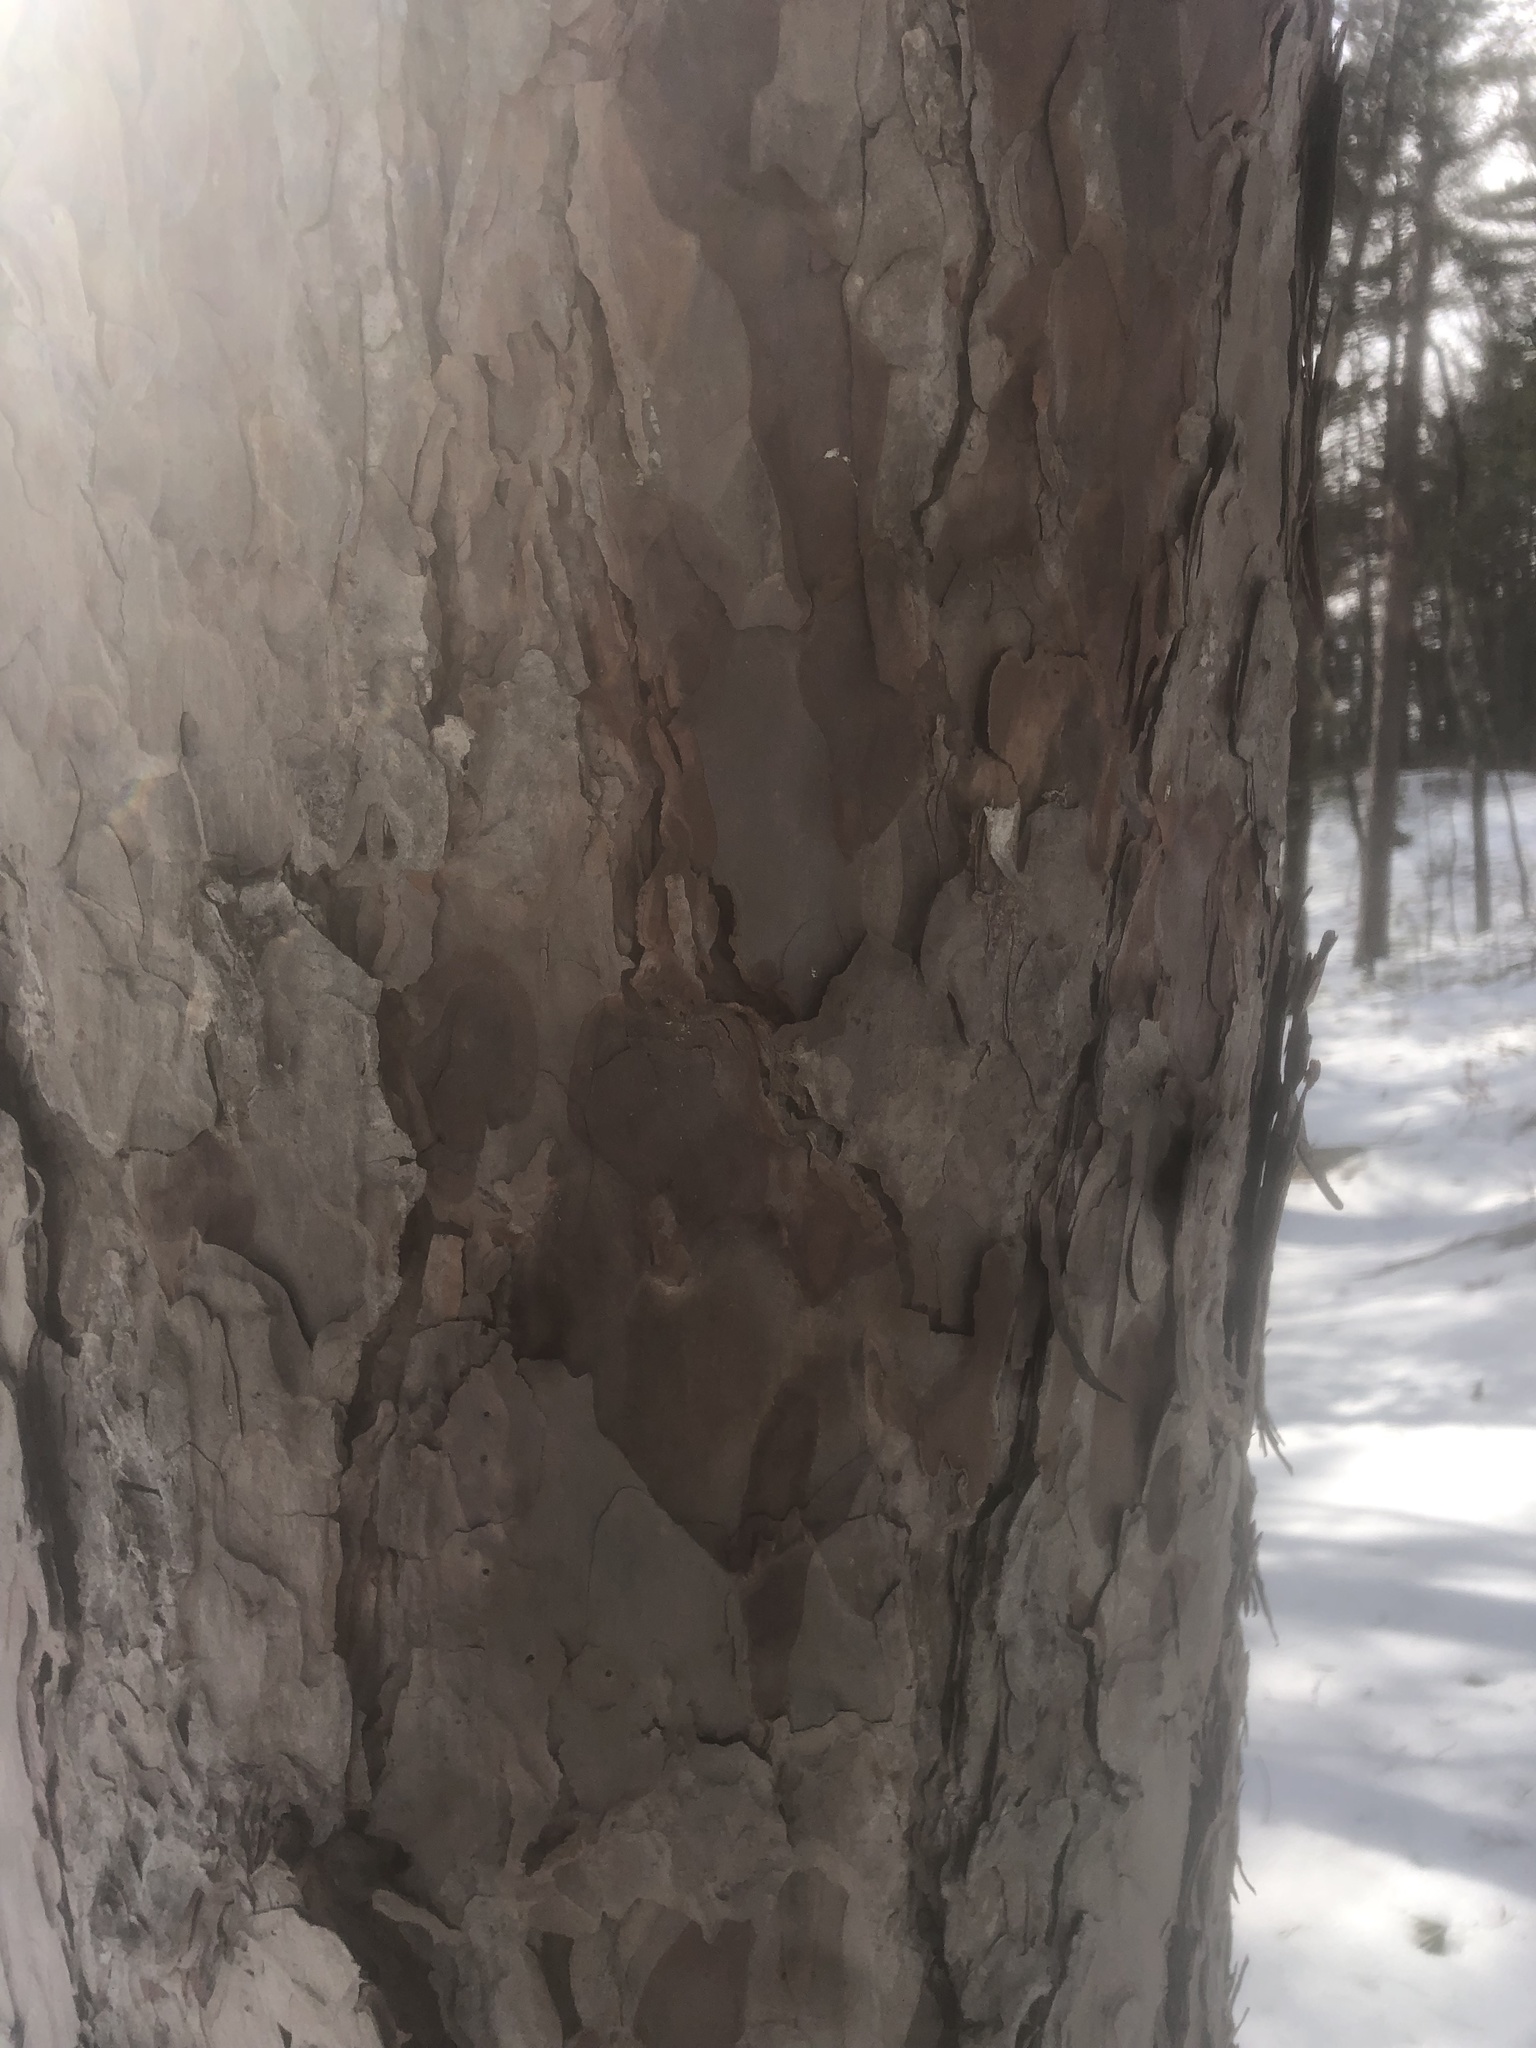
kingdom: Plantae
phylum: Tracheophyta
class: Pinopsida
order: Pinales
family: Pinaceae
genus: Pinus
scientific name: Pinus resinosa
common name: Norway pine
